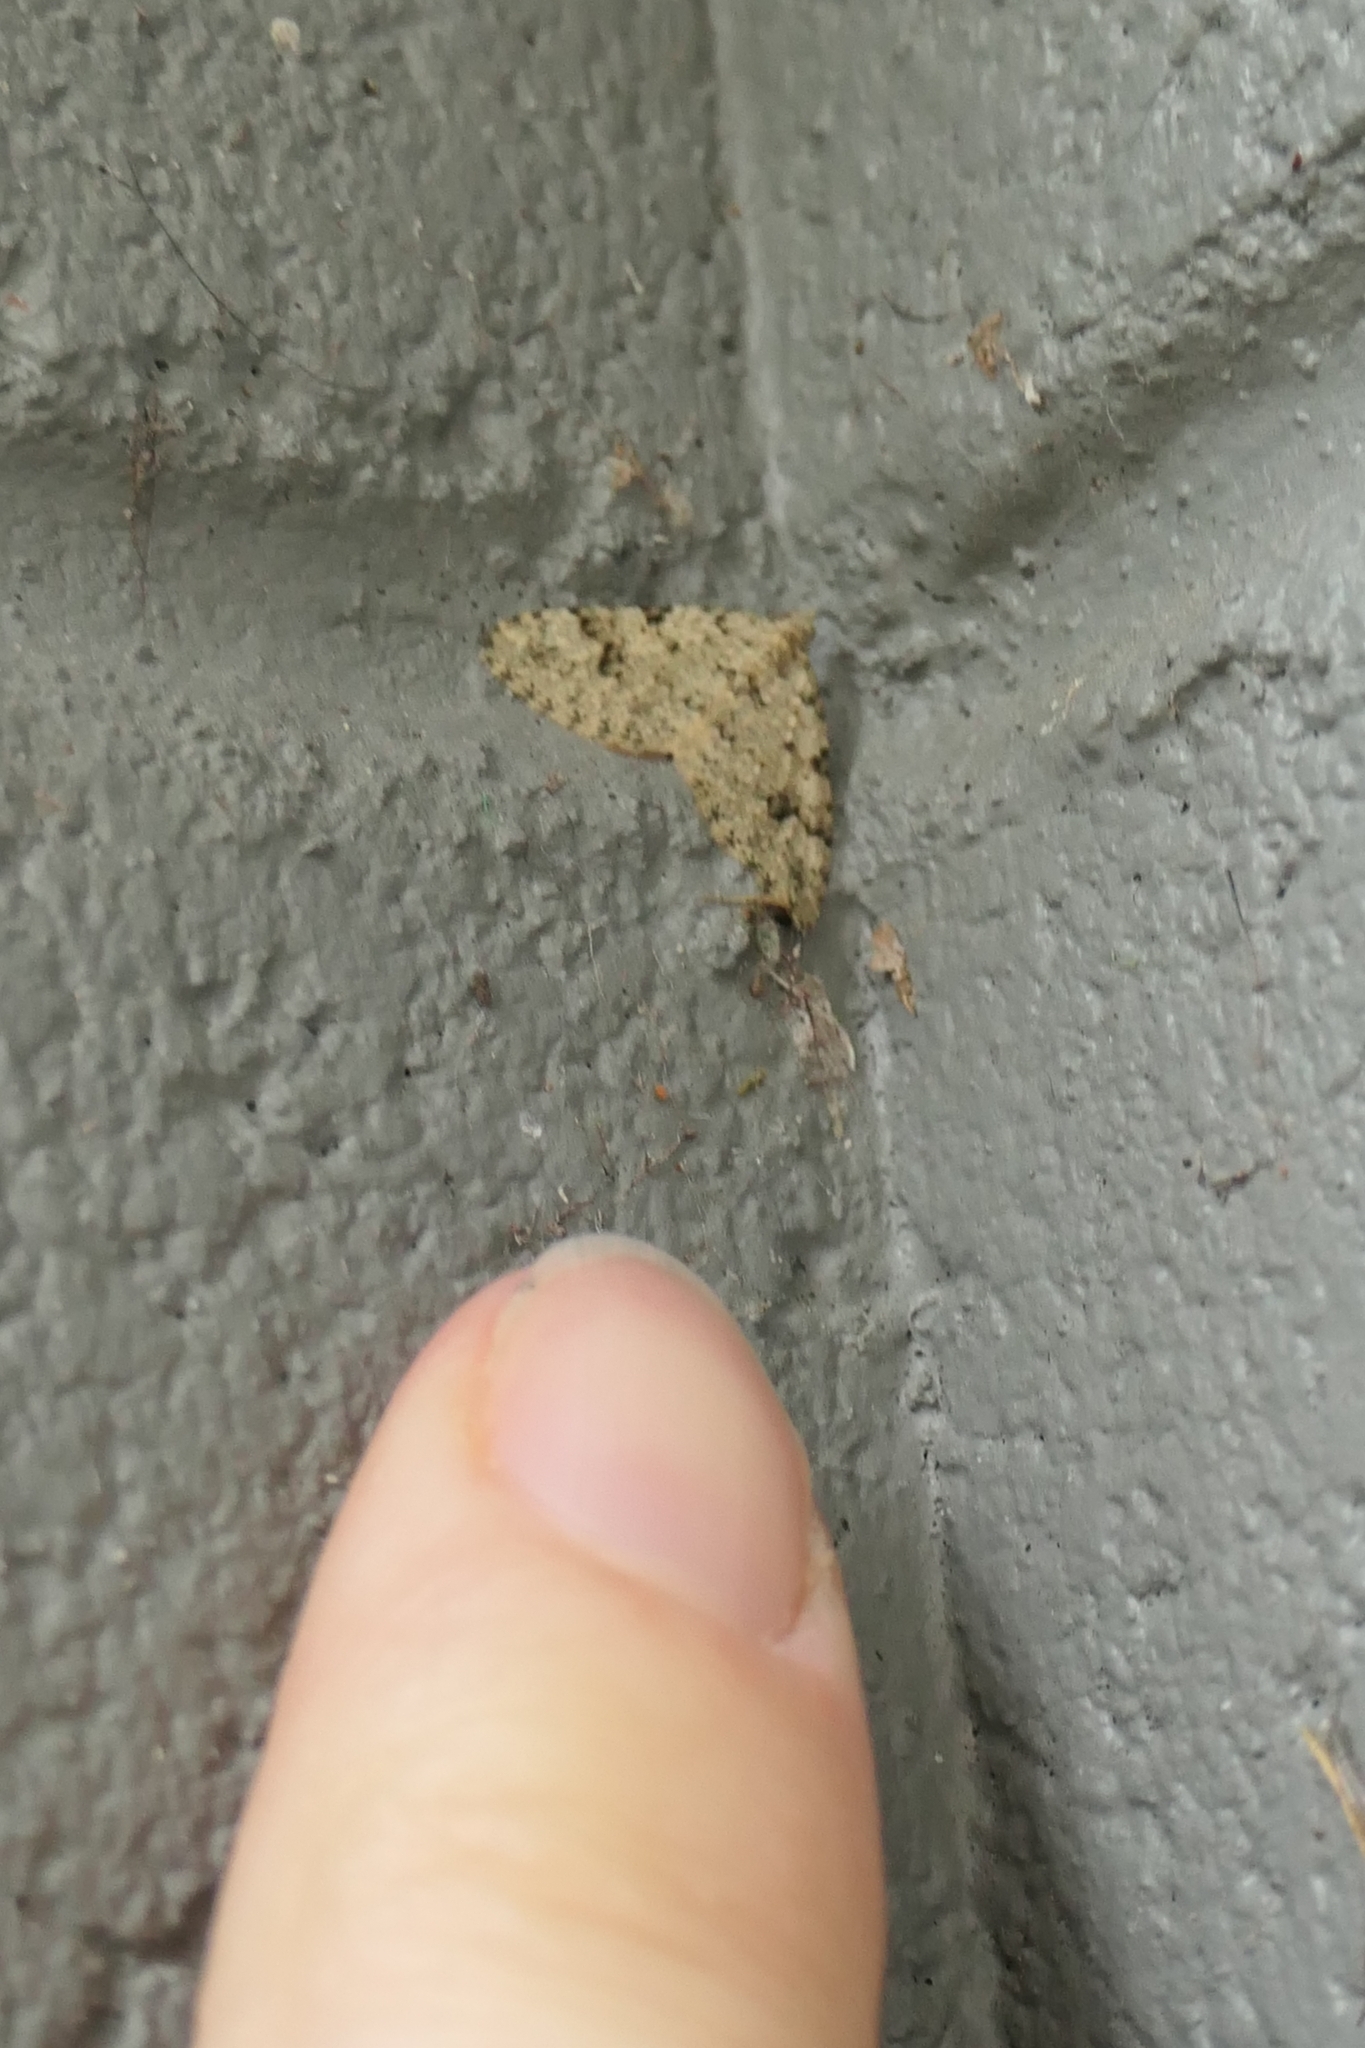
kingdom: Animalia
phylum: Arthropoda
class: Insecta
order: Lepidoptera
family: Geometridae
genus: Helastia
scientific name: Helastia cinerearia
